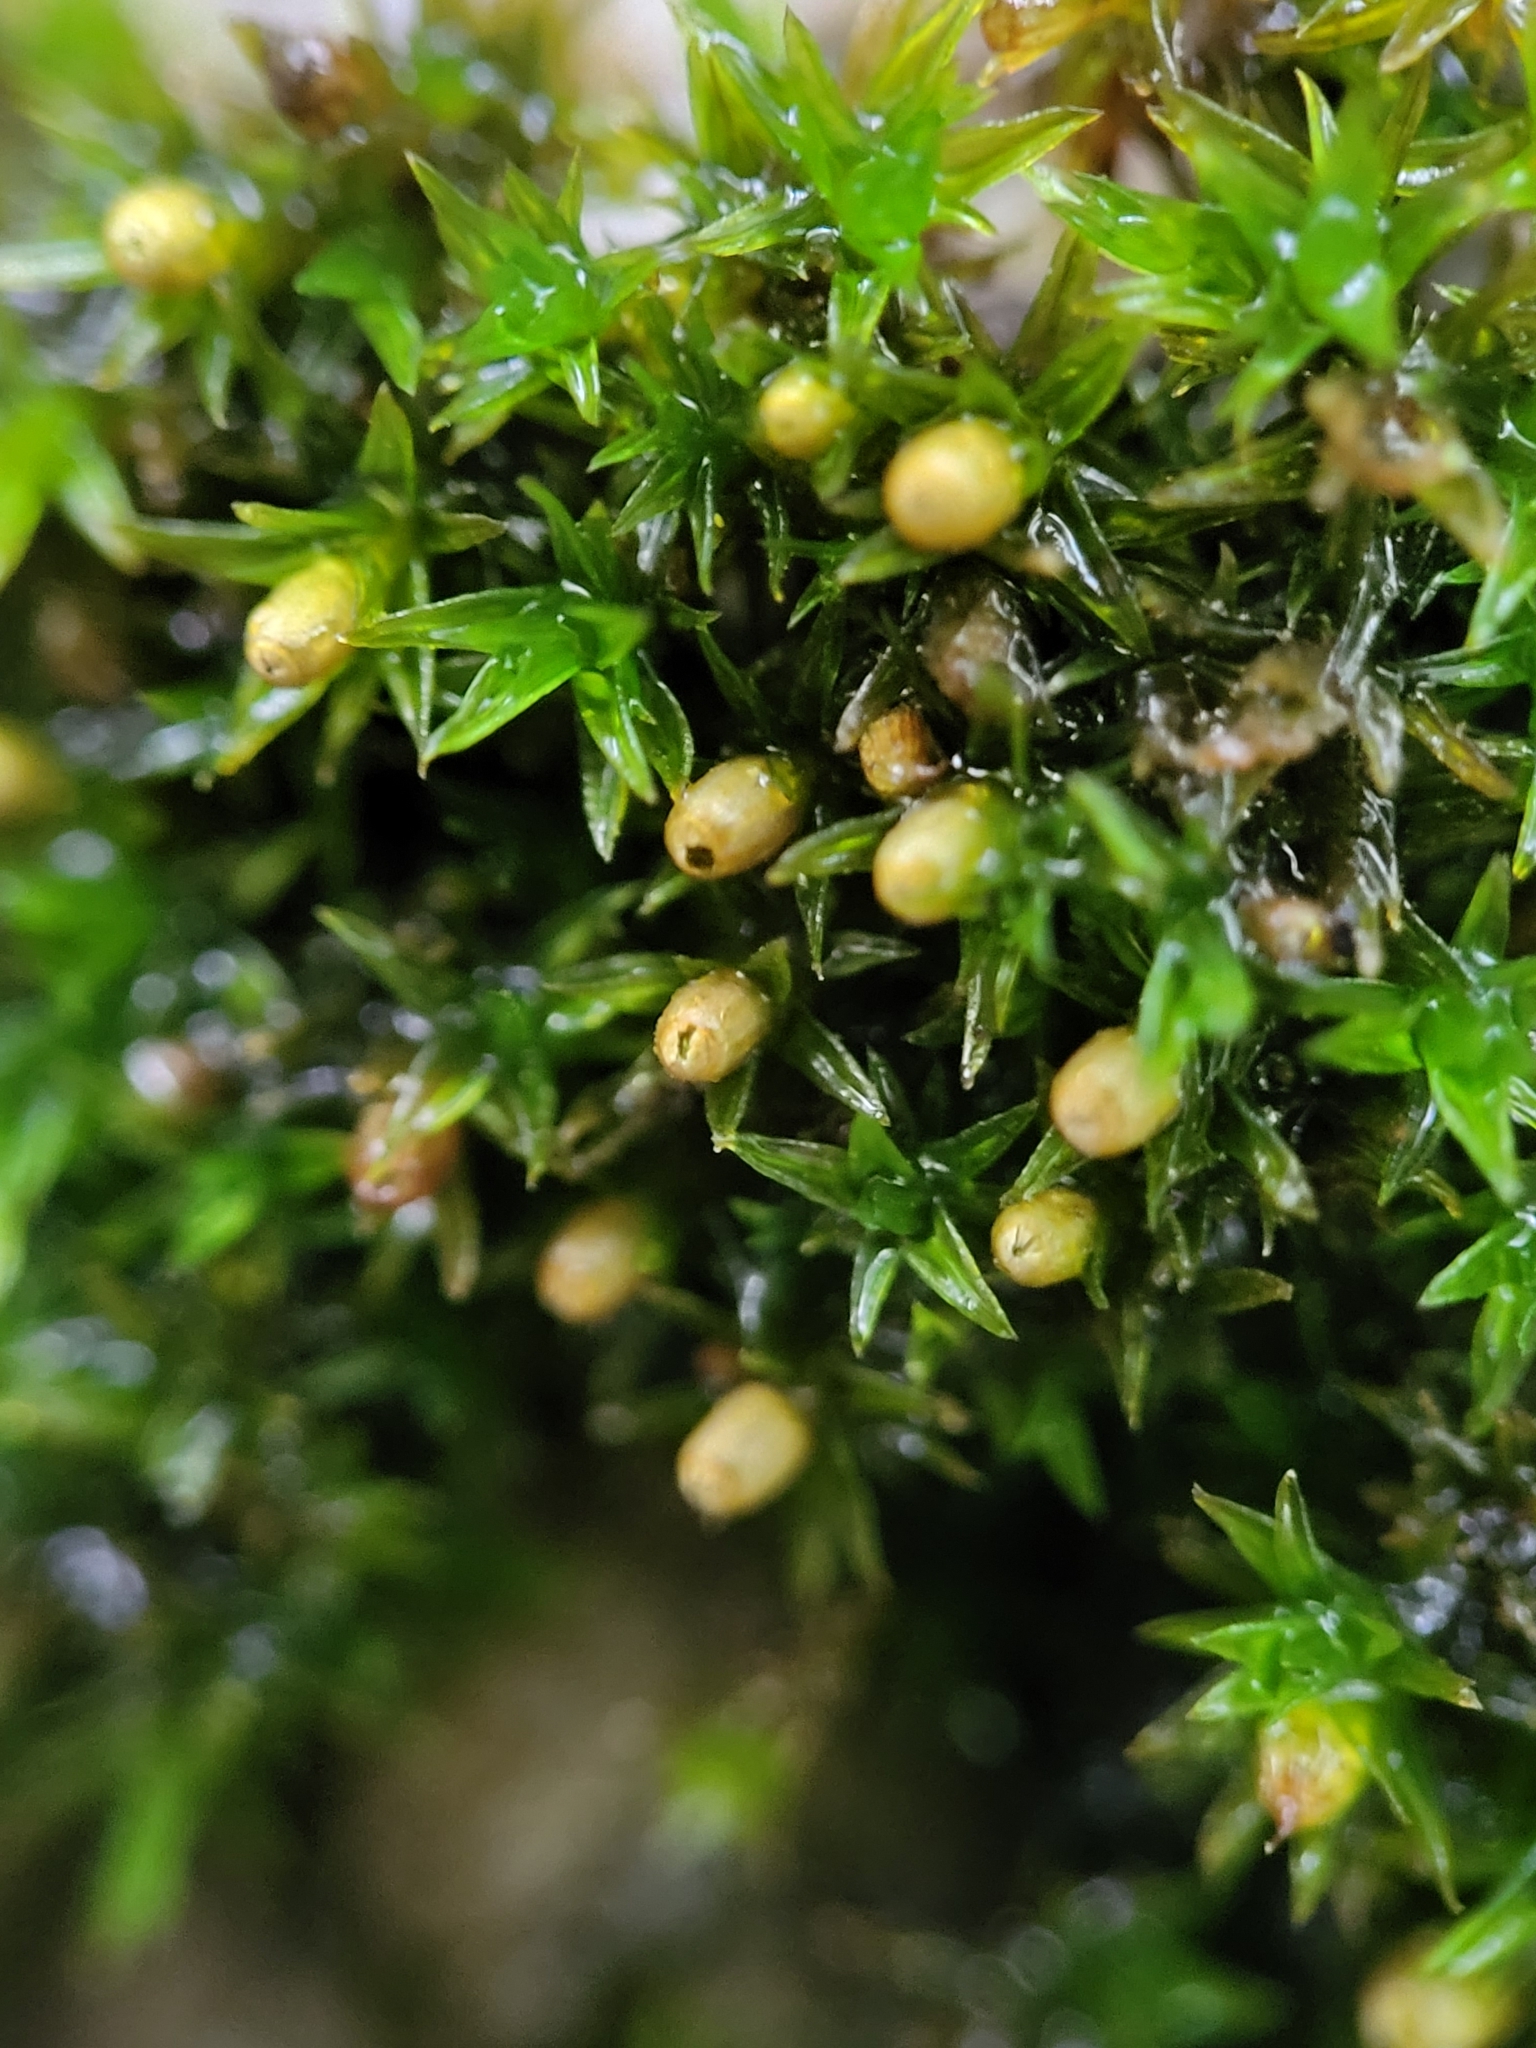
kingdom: Plantae
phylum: Bryophyta
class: Bryopsida
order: Orthotrichales
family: Orthotrichaceae
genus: Orthotrichum
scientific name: Orthotrichum strangulatum
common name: Limestone bristle moss
